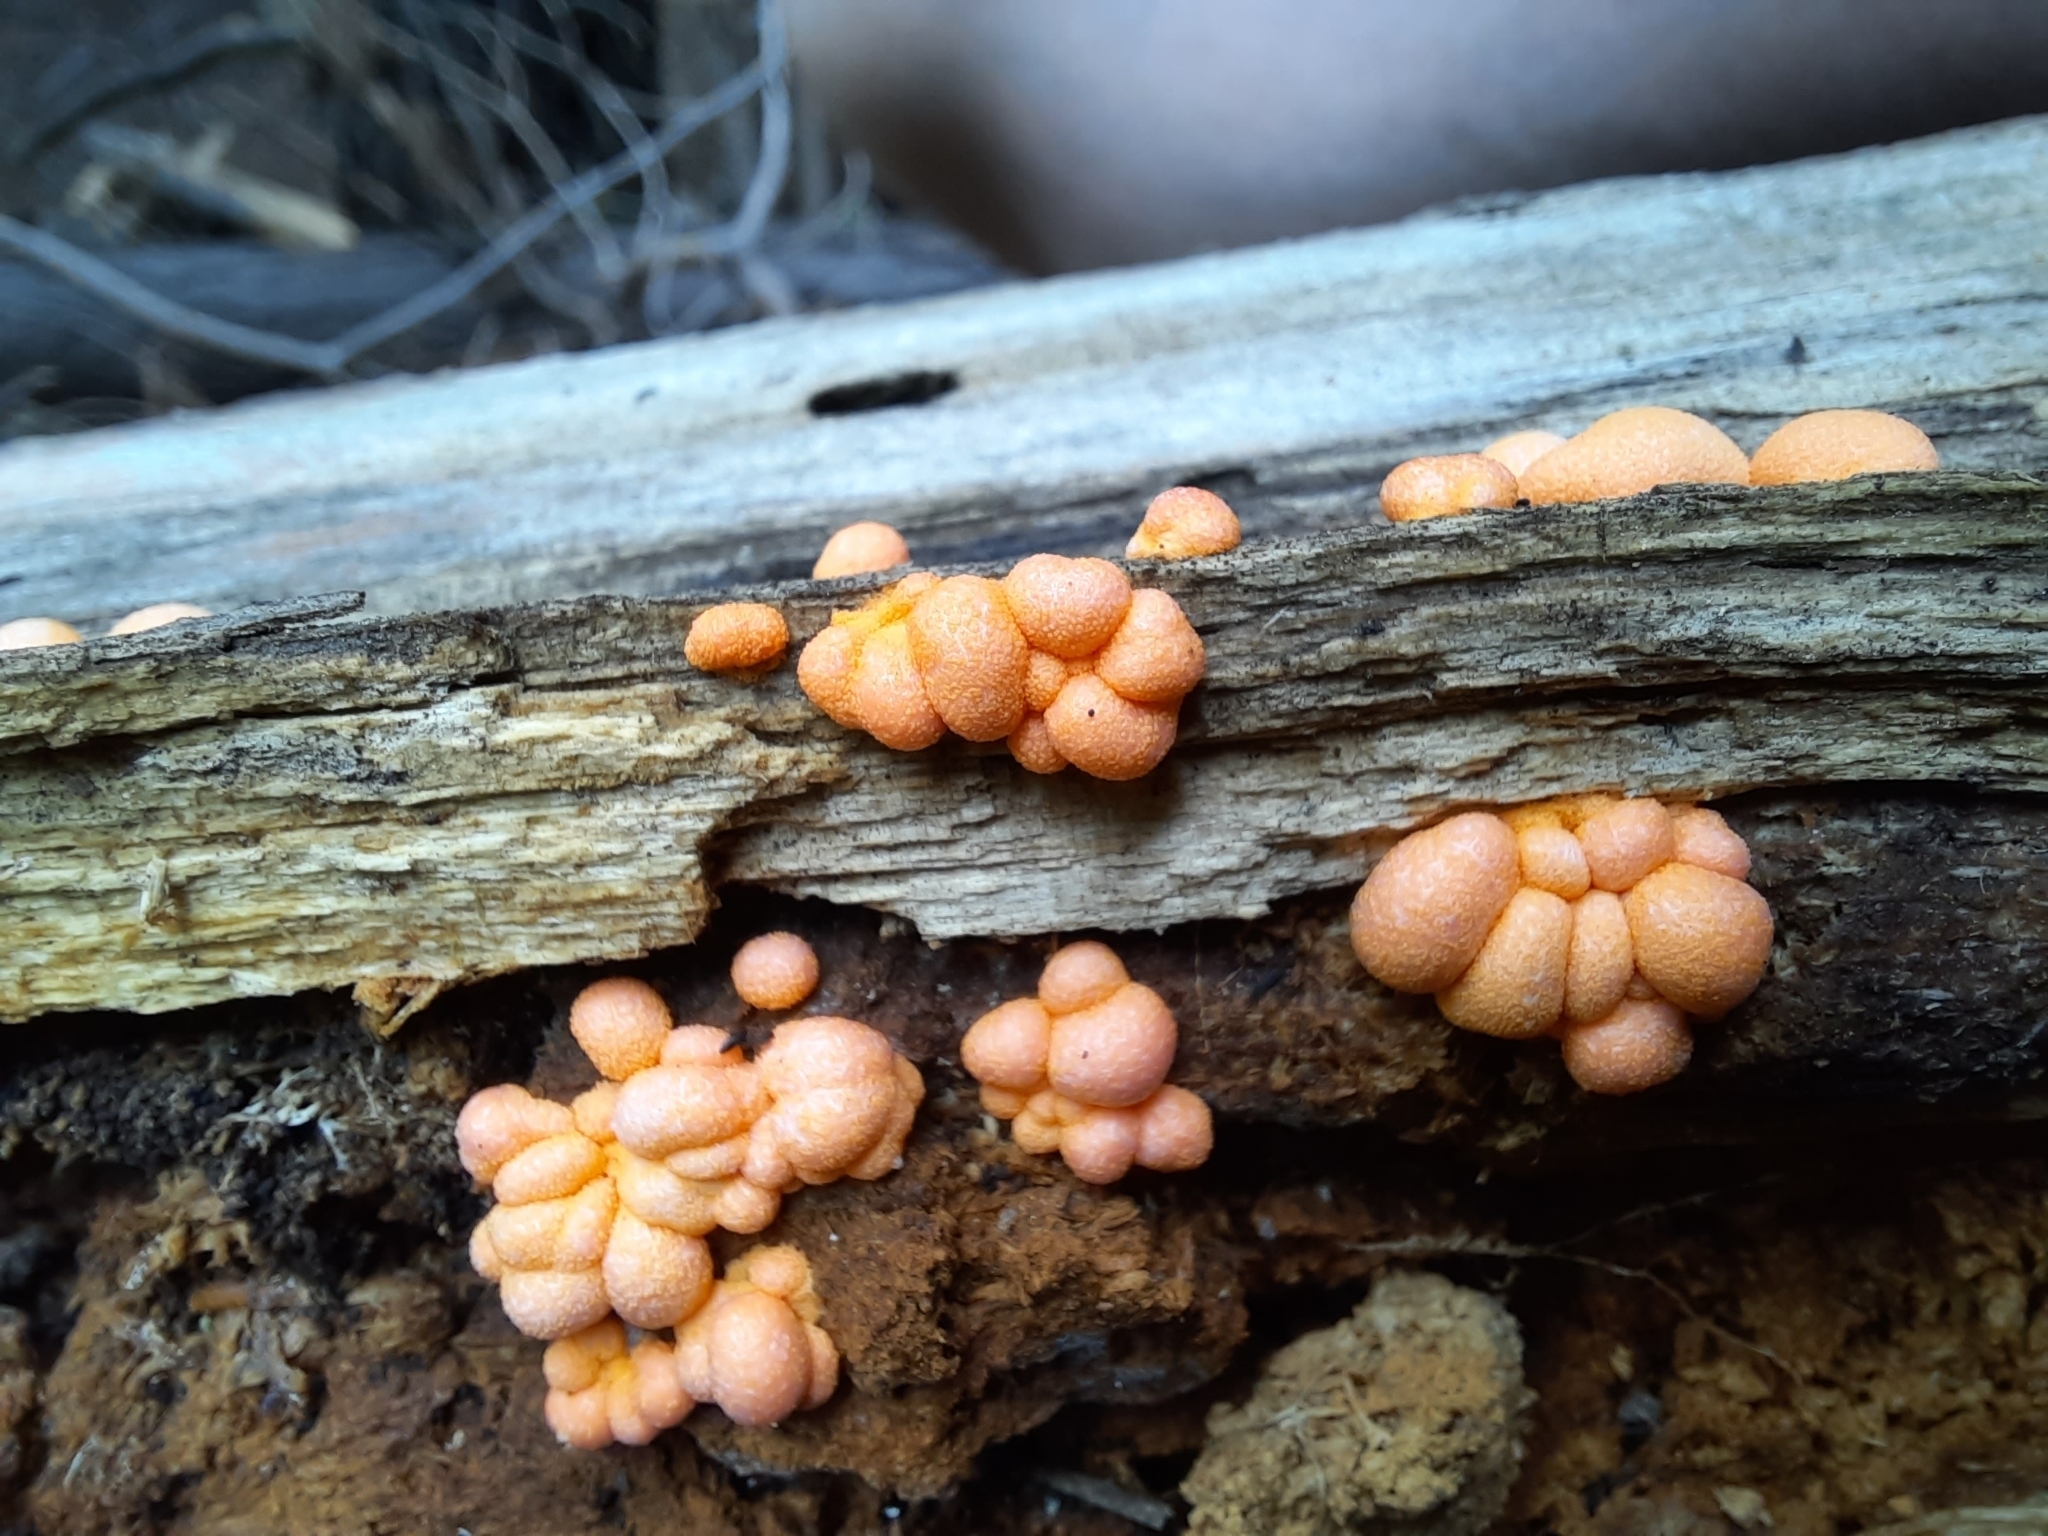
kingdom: Protozoa
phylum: Mycetozoa
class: Myxomycetes
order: Cribrariales
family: Tubiferaceae
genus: Lycogala
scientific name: Lycogala epidendrum
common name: Wolf's milk
